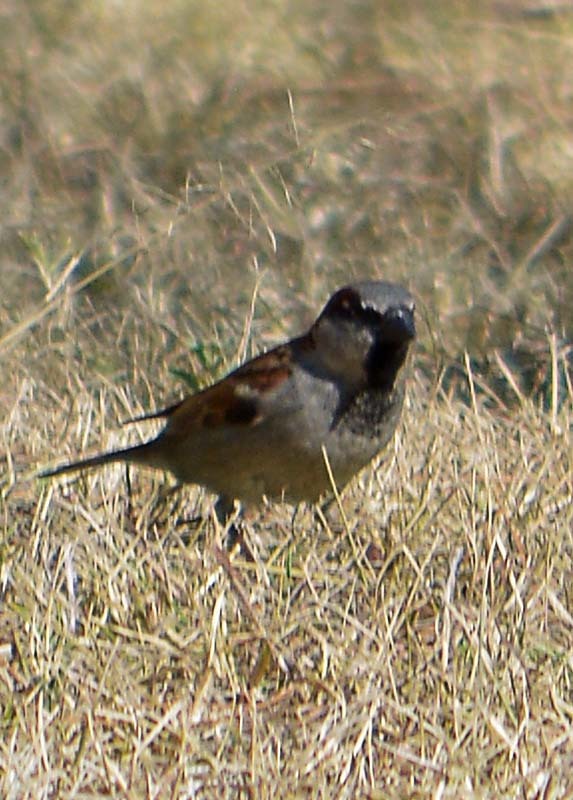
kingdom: Animalia
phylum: Chordata
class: Aves
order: Passeriformes
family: Passeridae
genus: Passer
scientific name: Passer domesticus
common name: House sparrow
